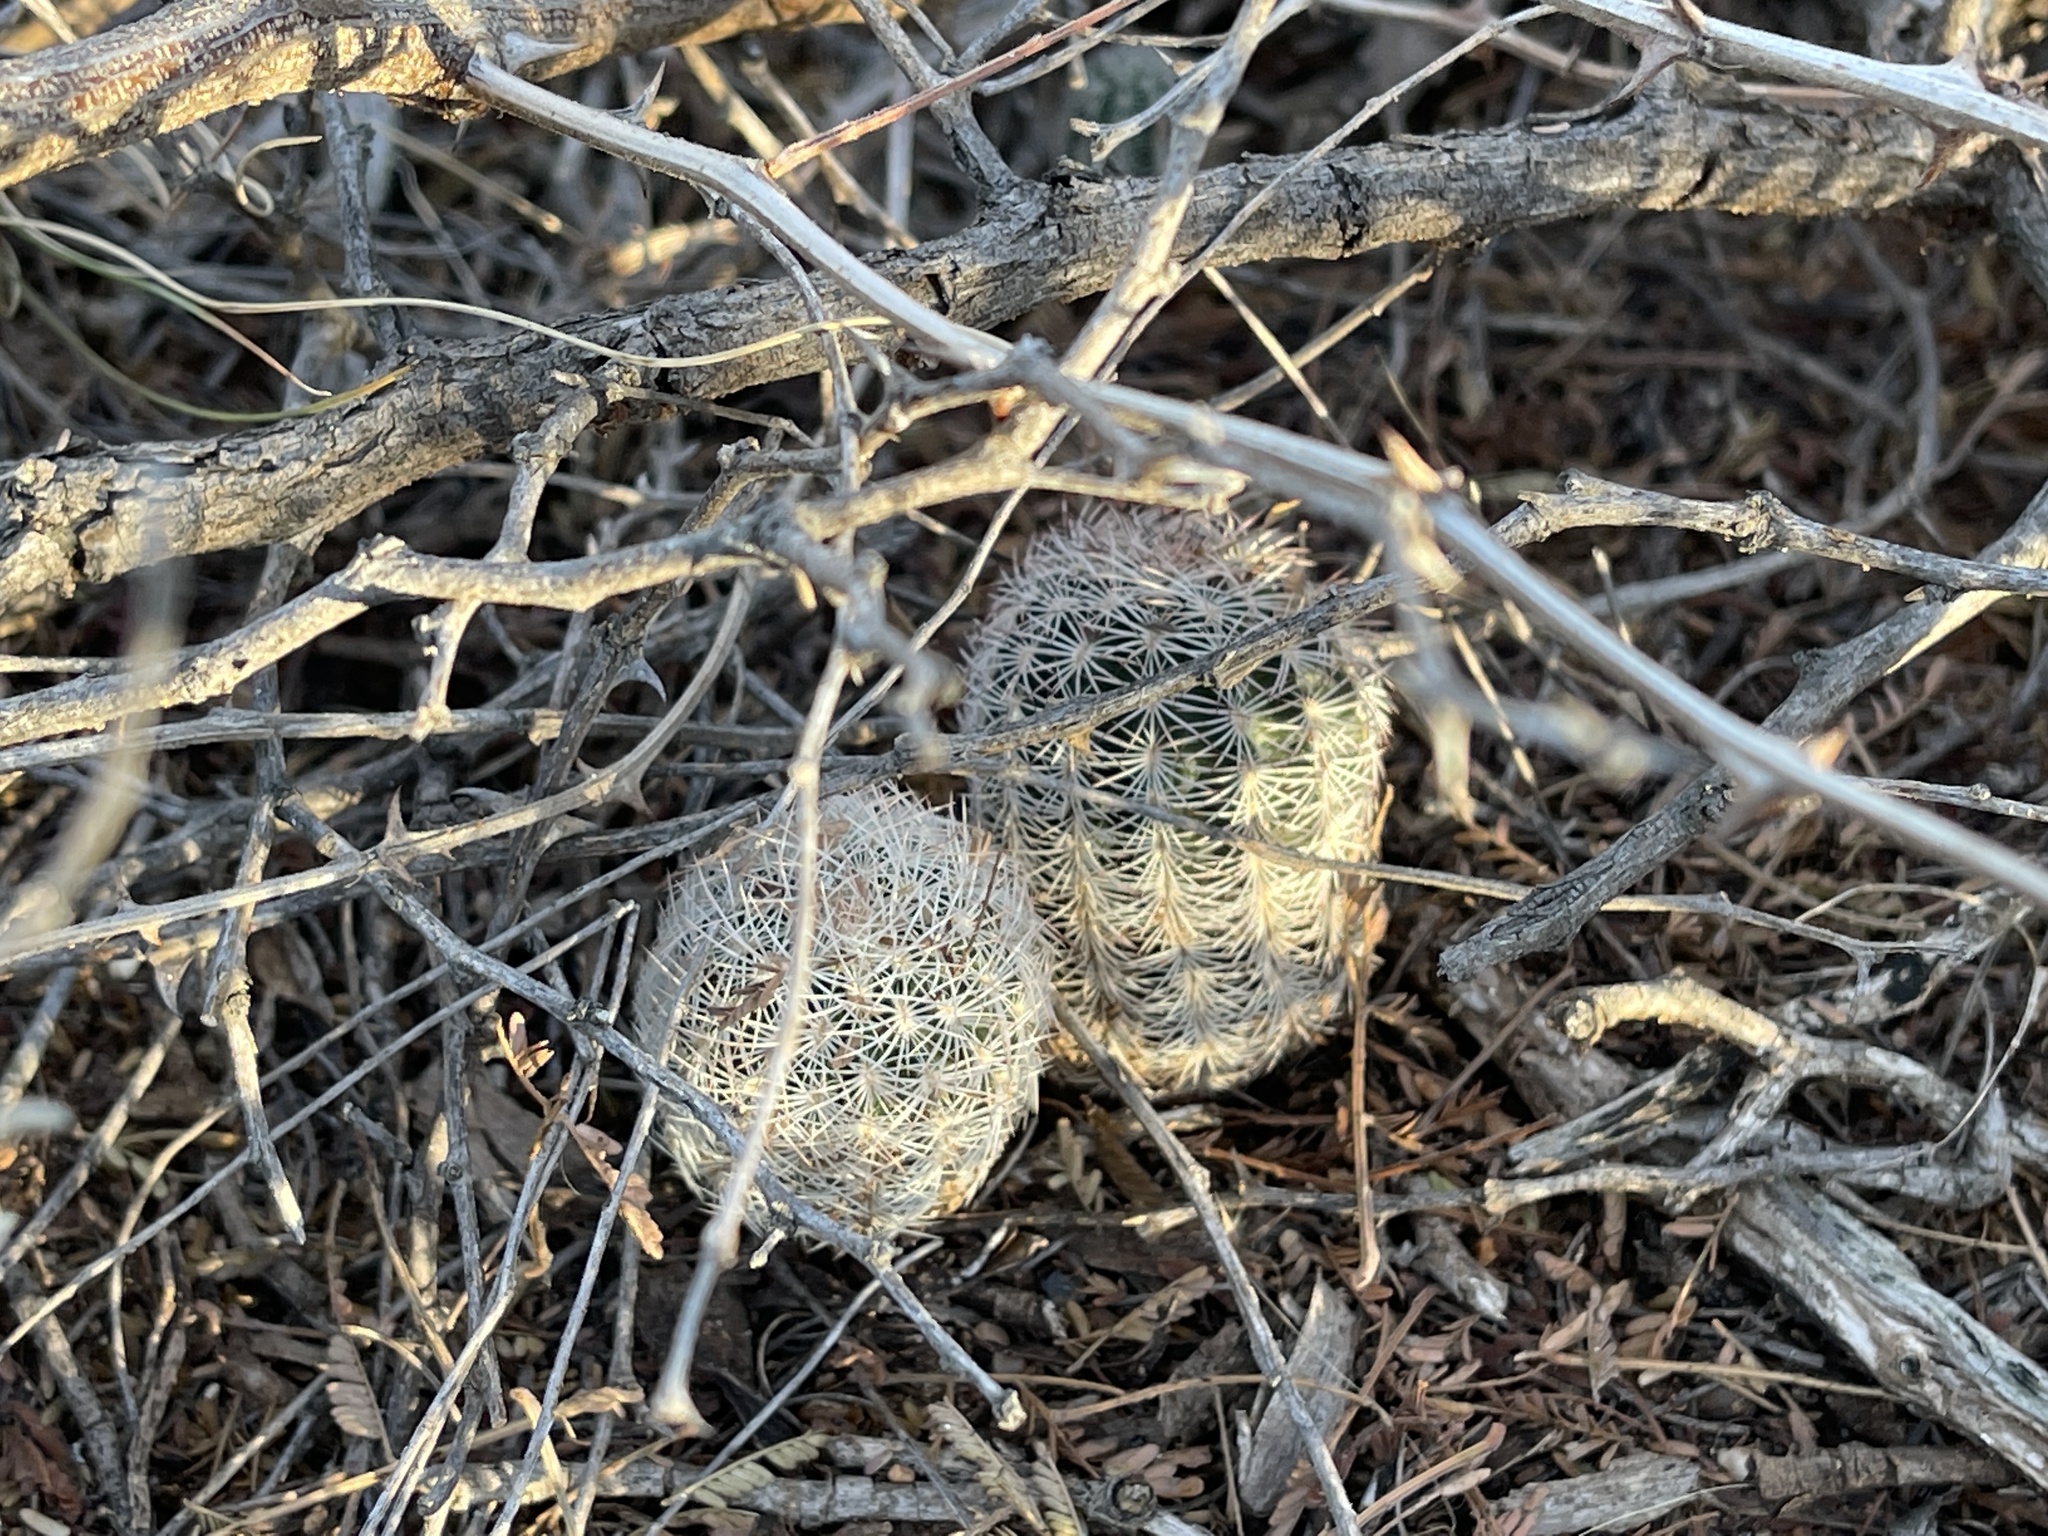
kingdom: Plantae
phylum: Tracheophyta
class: Magnoliopsida
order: Caryophyllales
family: Cactaceae
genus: Echinocereus
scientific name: Echinocereus reichenbachii
